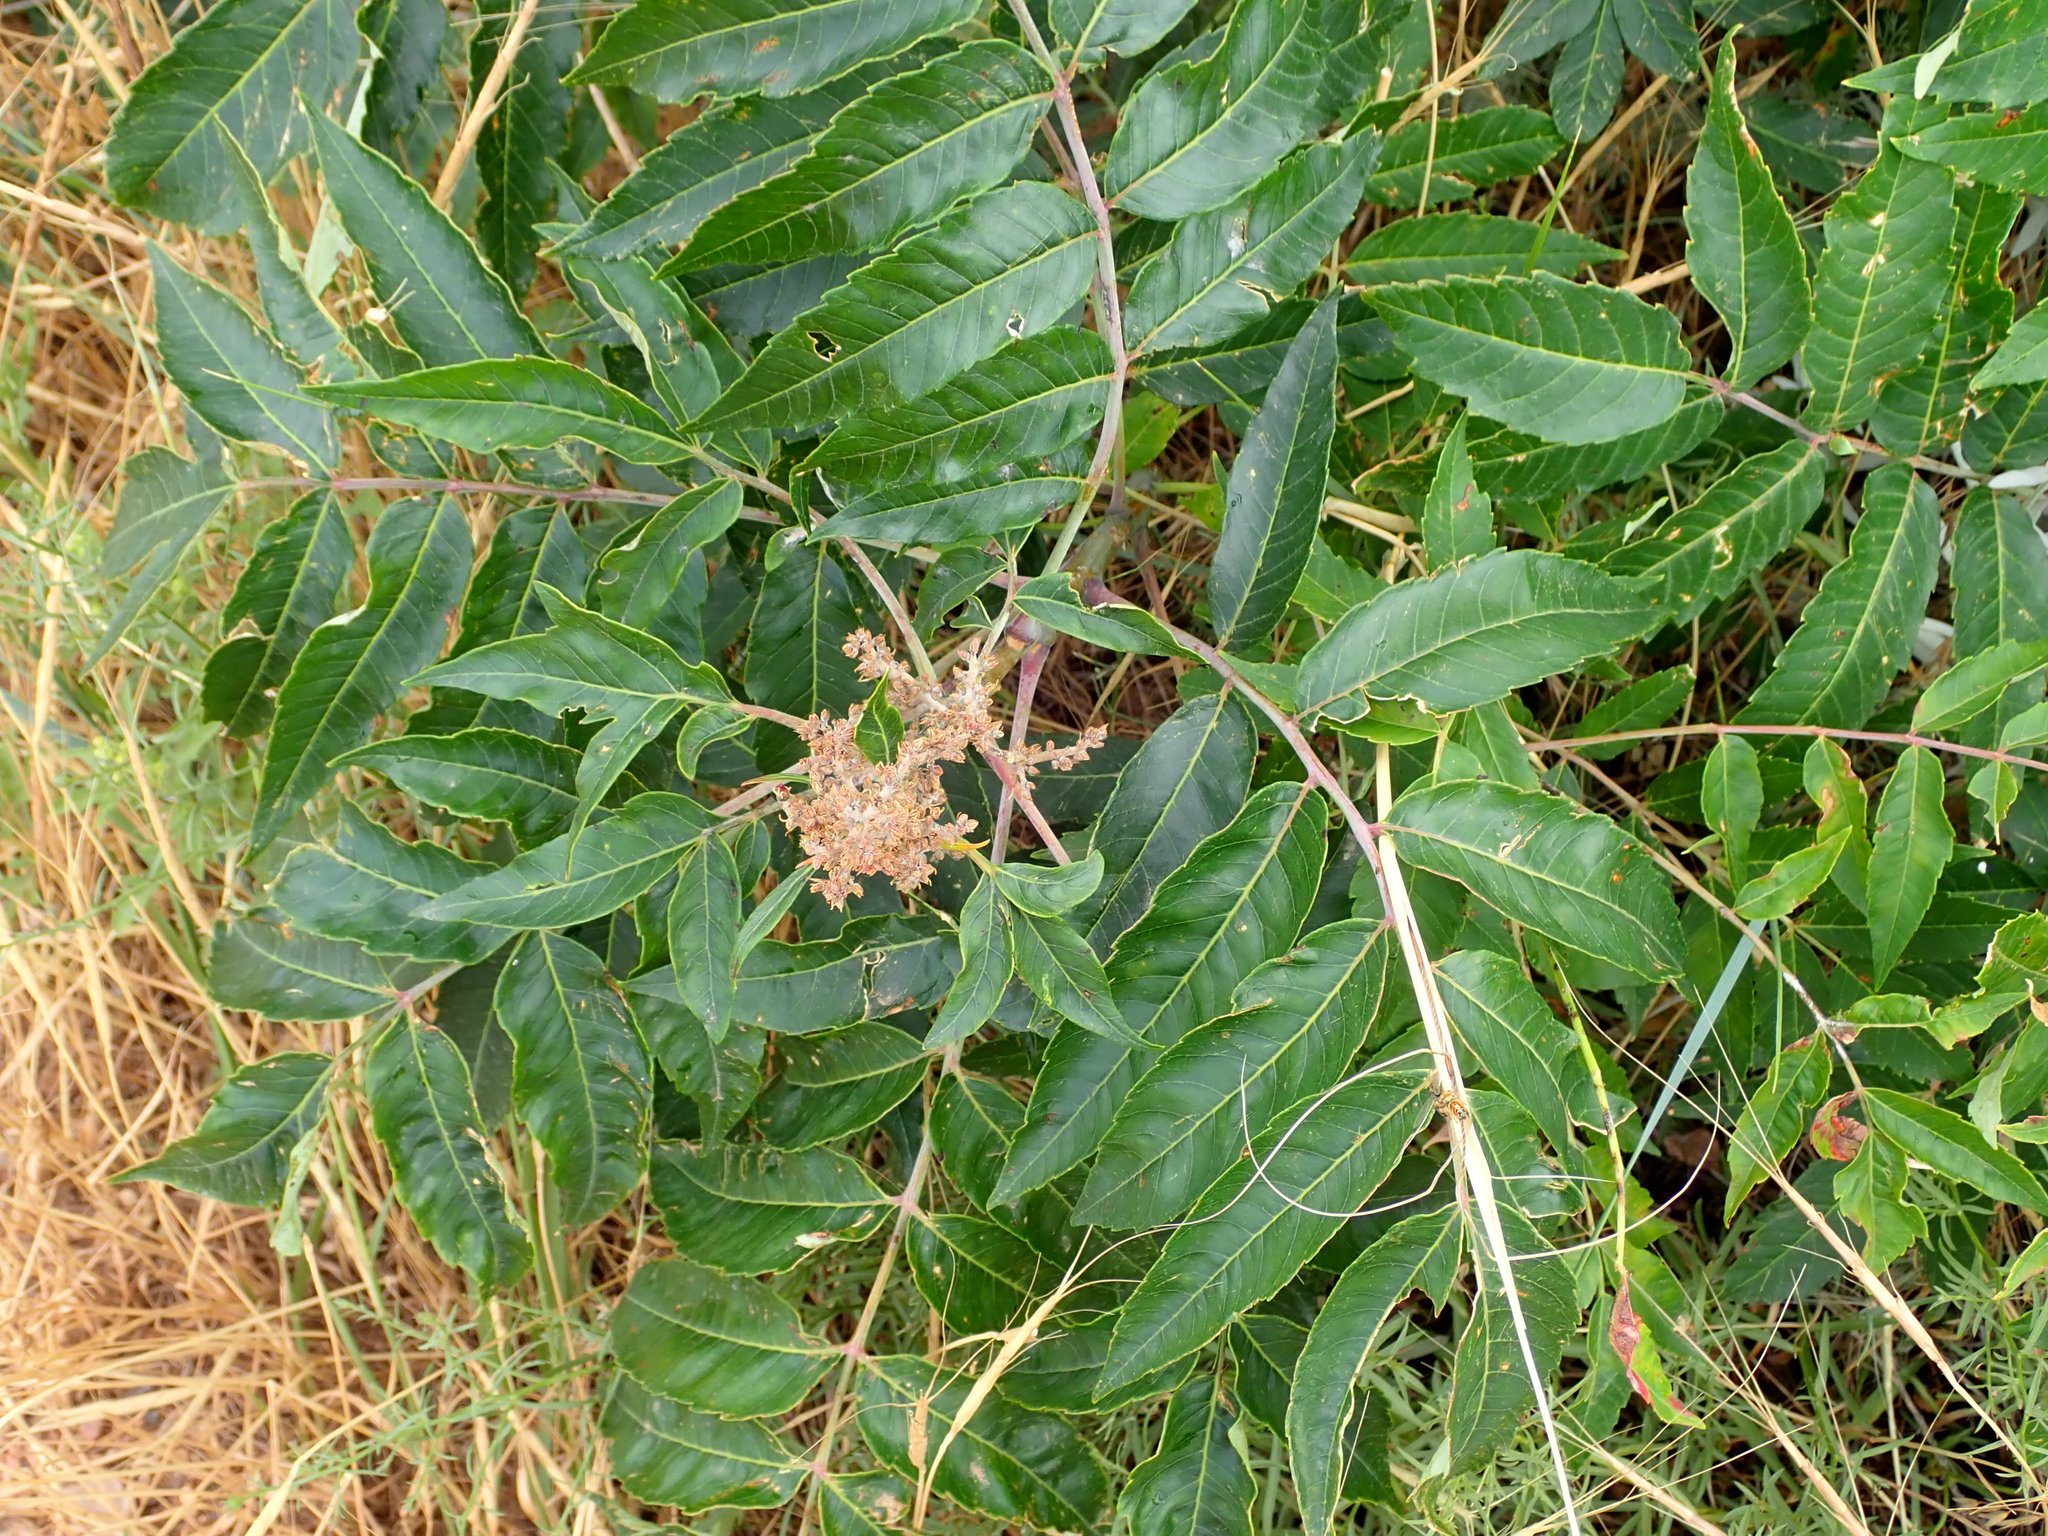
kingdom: Plantae
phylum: Tracheophyta
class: Magnoliopsida
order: Sapindales
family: Anacardiaceae
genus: Rhus
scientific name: Rhus glabra
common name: Scarlet sumac
